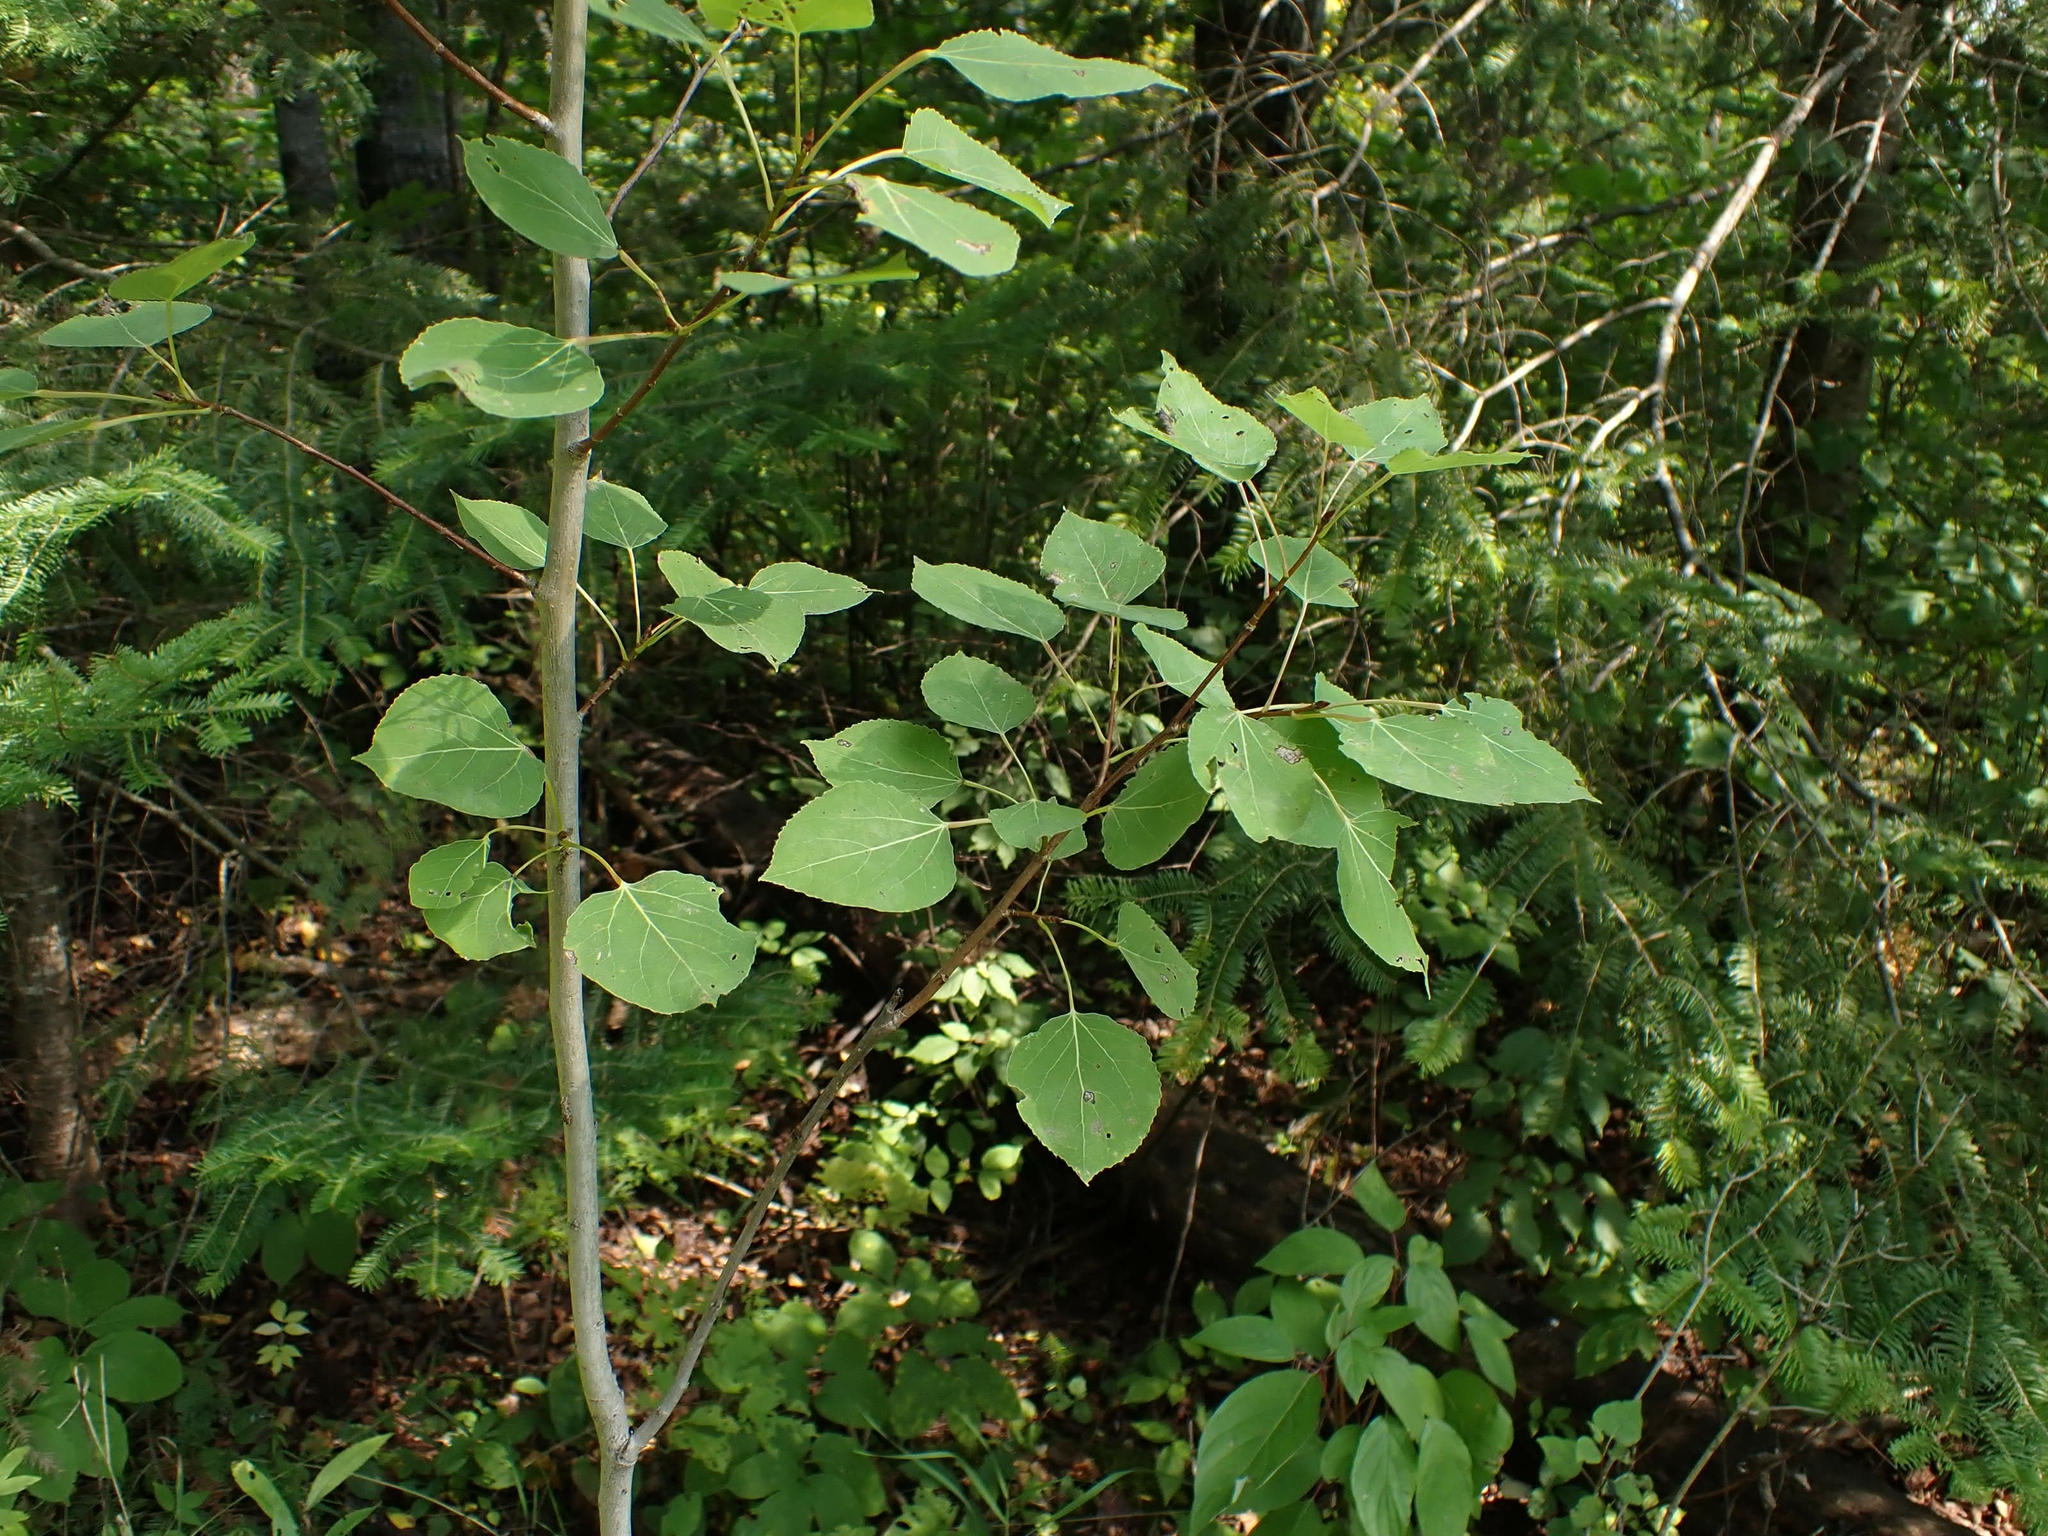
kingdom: Plantae
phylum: Tracheophyta
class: Magnoliopsida
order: Malpighiales
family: Salicaceae
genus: Populus
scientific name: Populus tremuloides
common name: Quaking aspen
